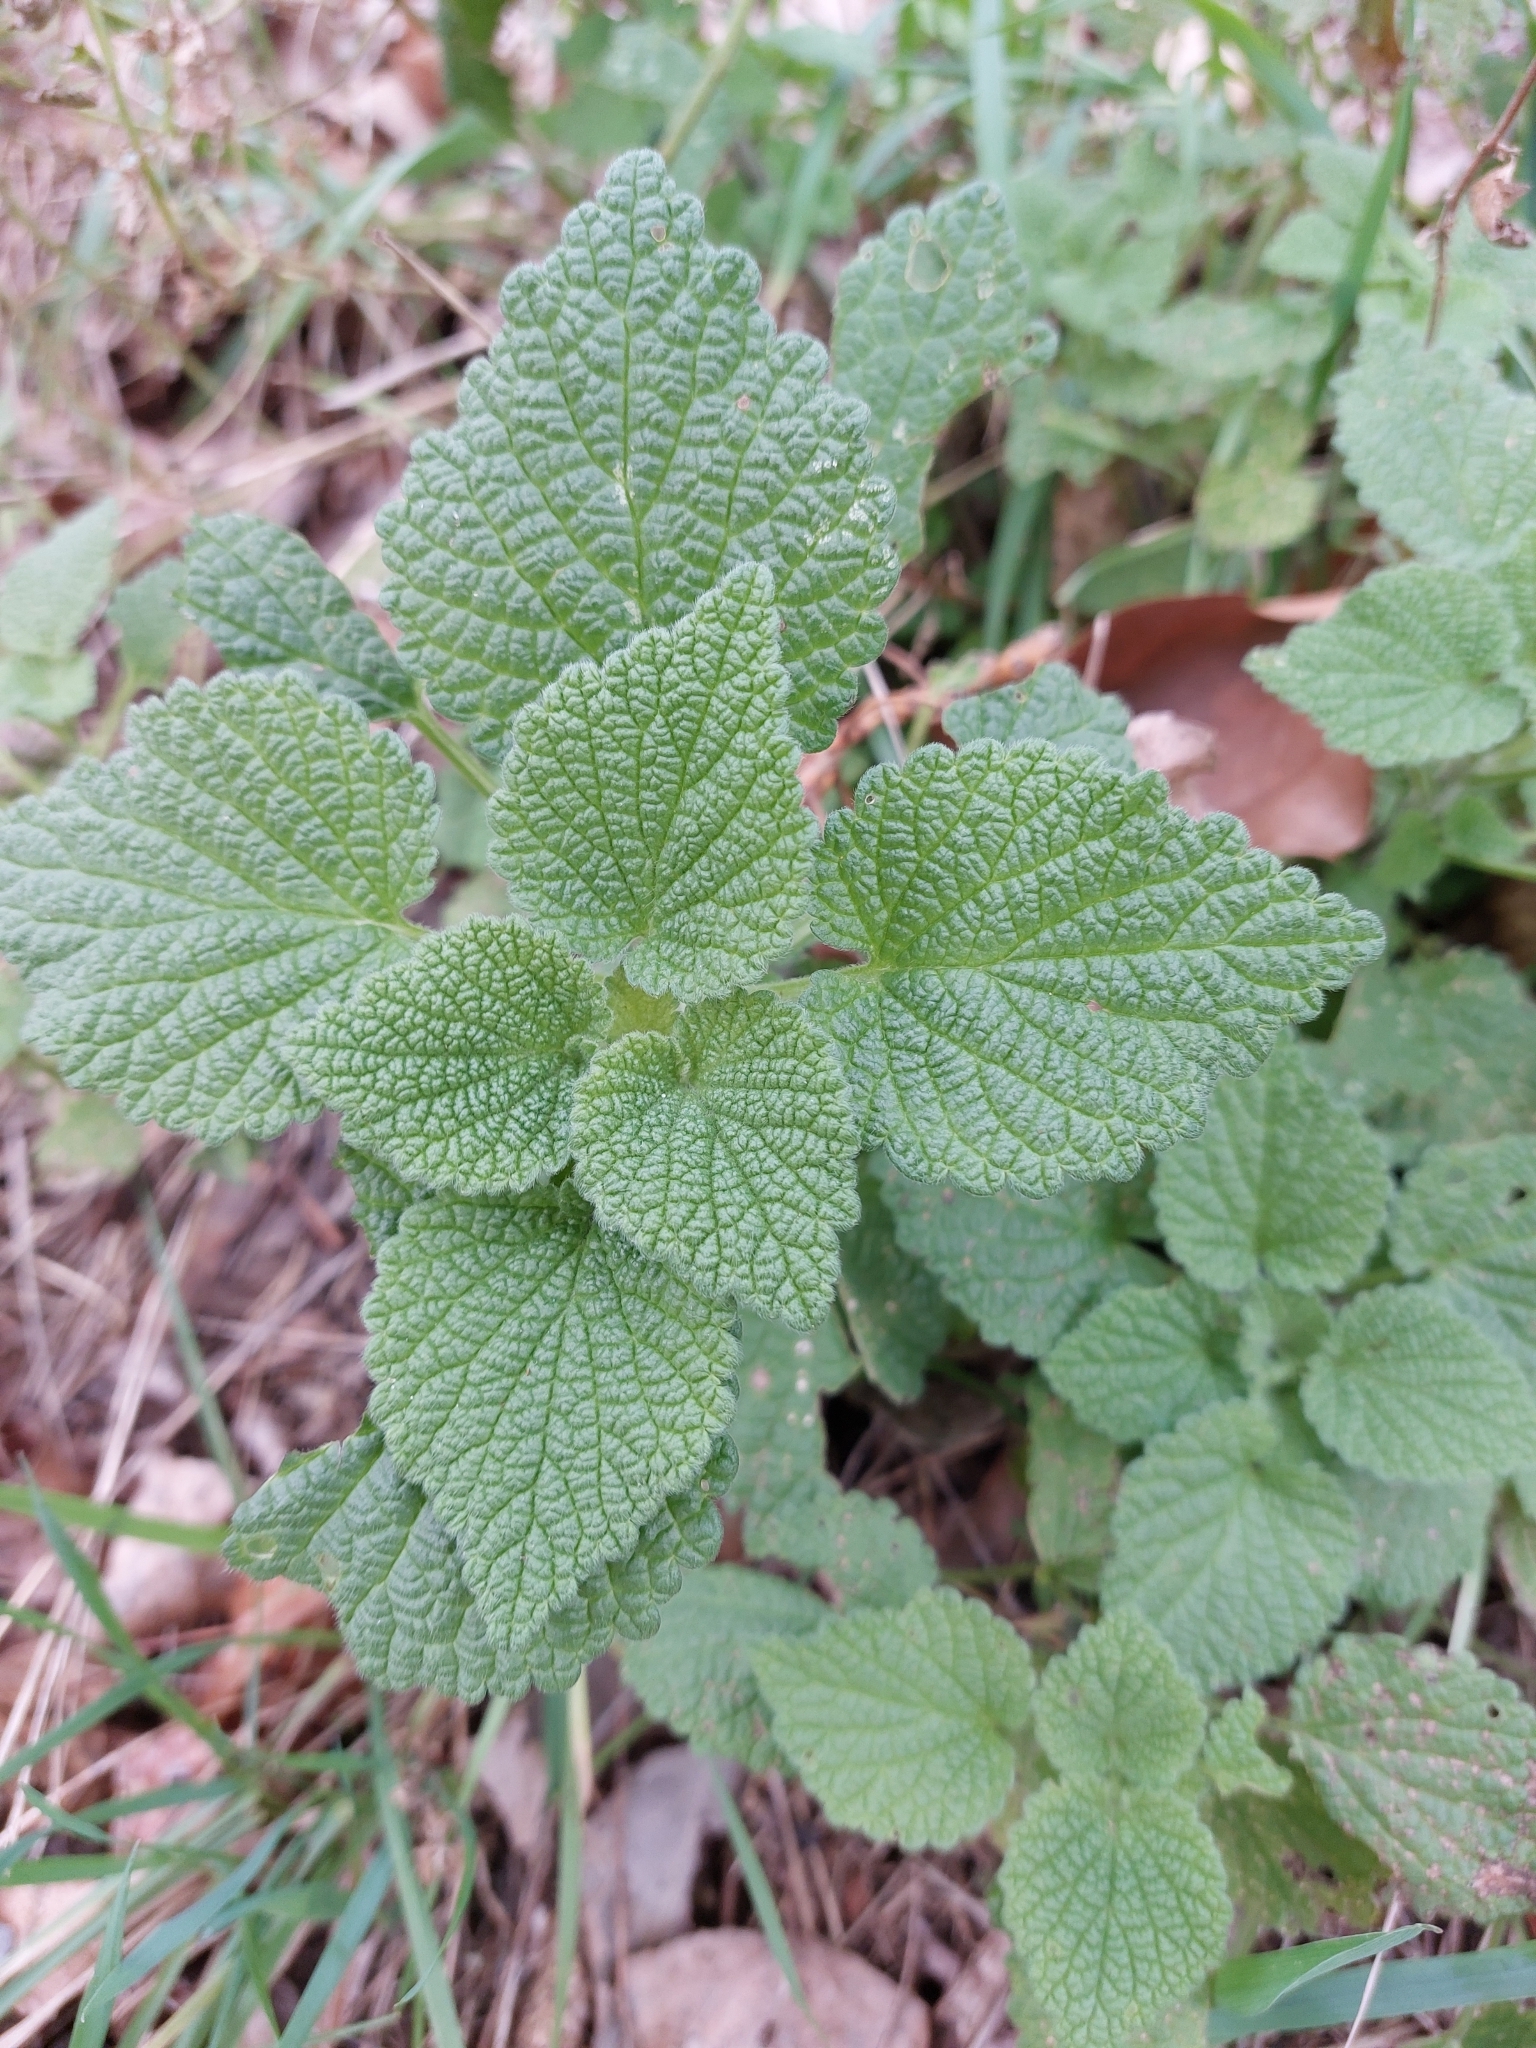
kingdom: Plantae
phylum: Tracheophyta
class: Magnoliopsida
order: Lamiales
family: Lamiaceae
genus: Ballota
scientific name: Ballota nigra
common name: Black horehound
